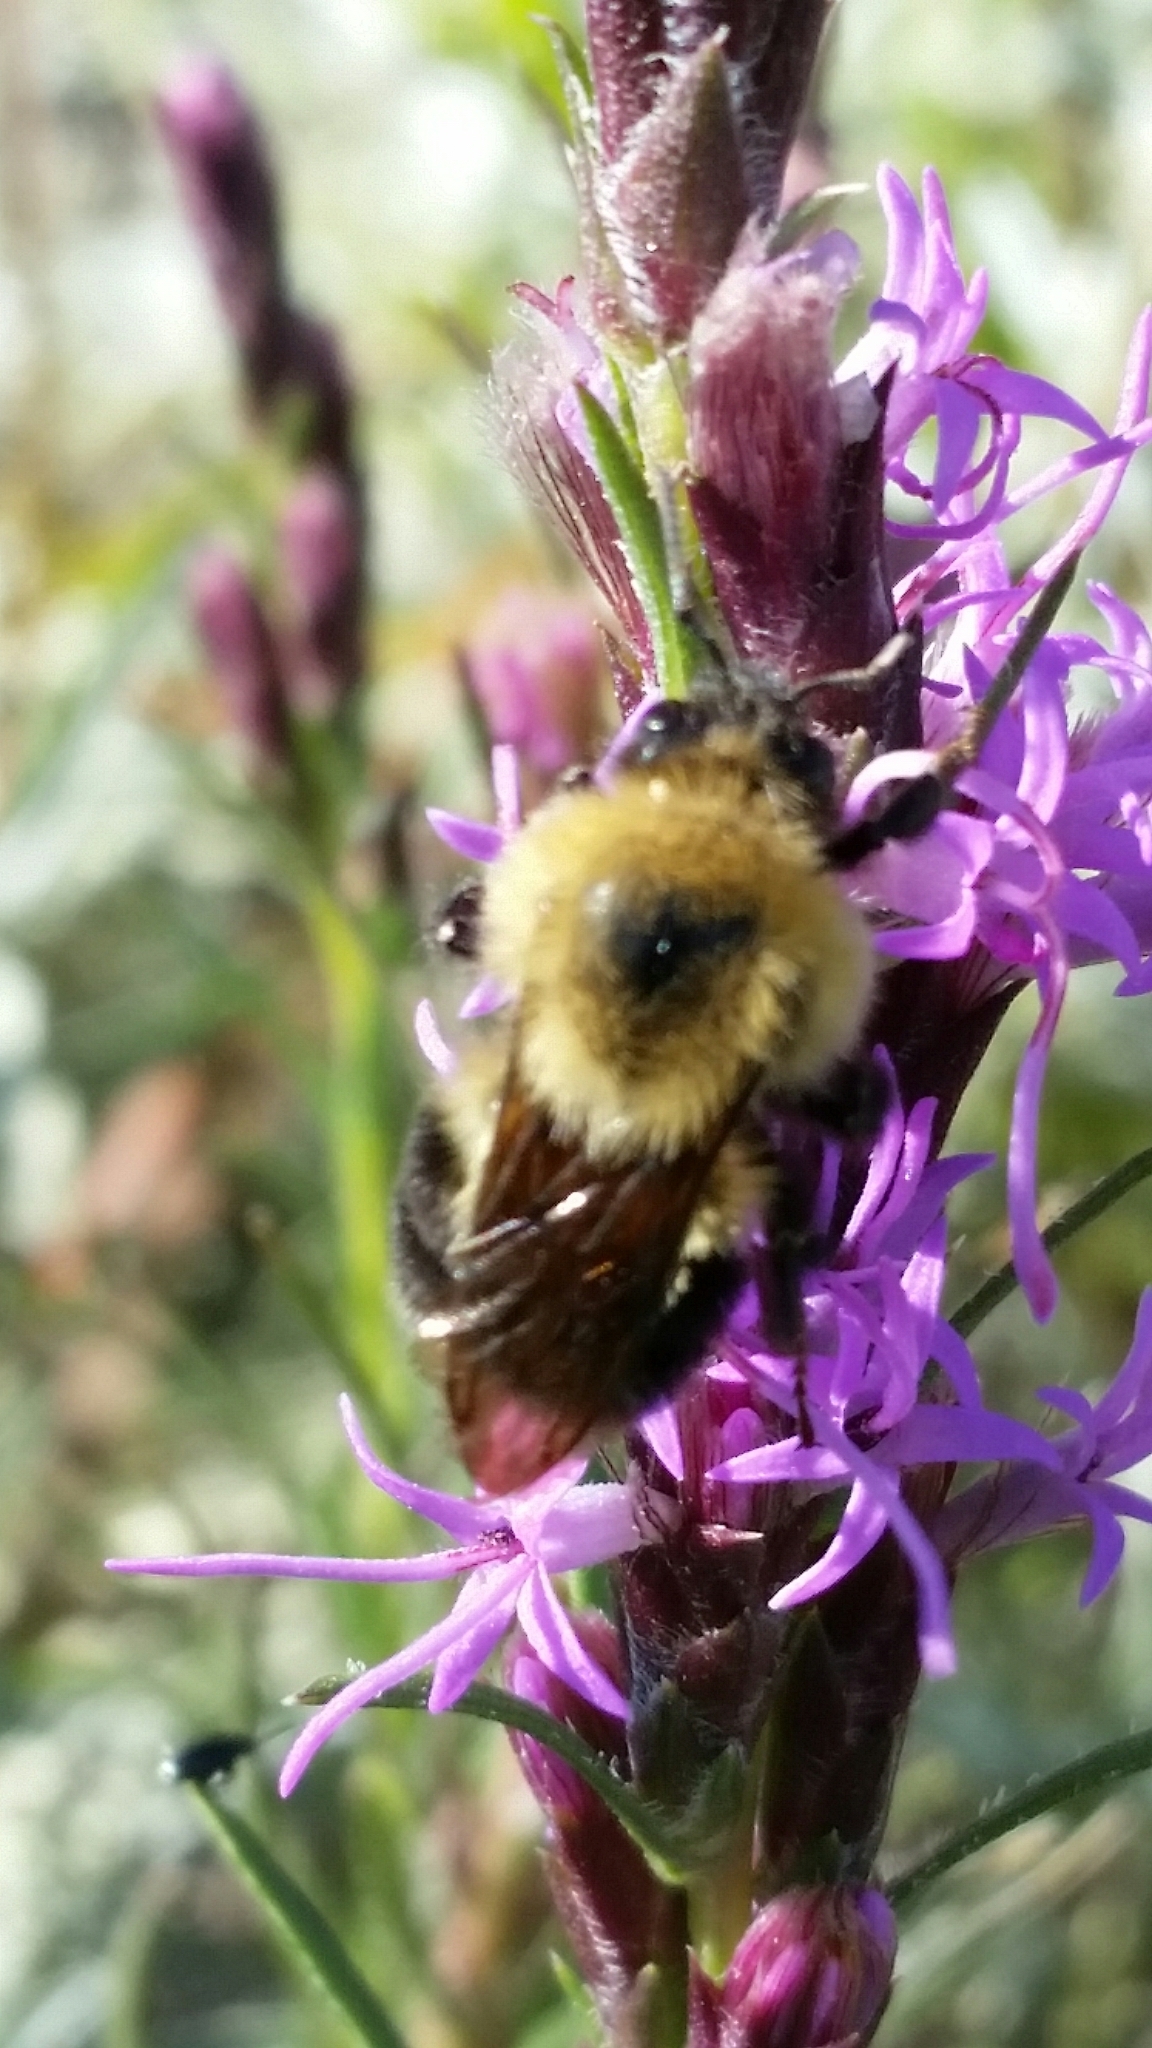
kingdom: Animalia
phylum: Arthropoda
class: Insecta
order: Hymenoptera
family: Apidae
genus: Bombus
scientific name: Bombus bimaculatus
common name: Two-spotted bumble bee
